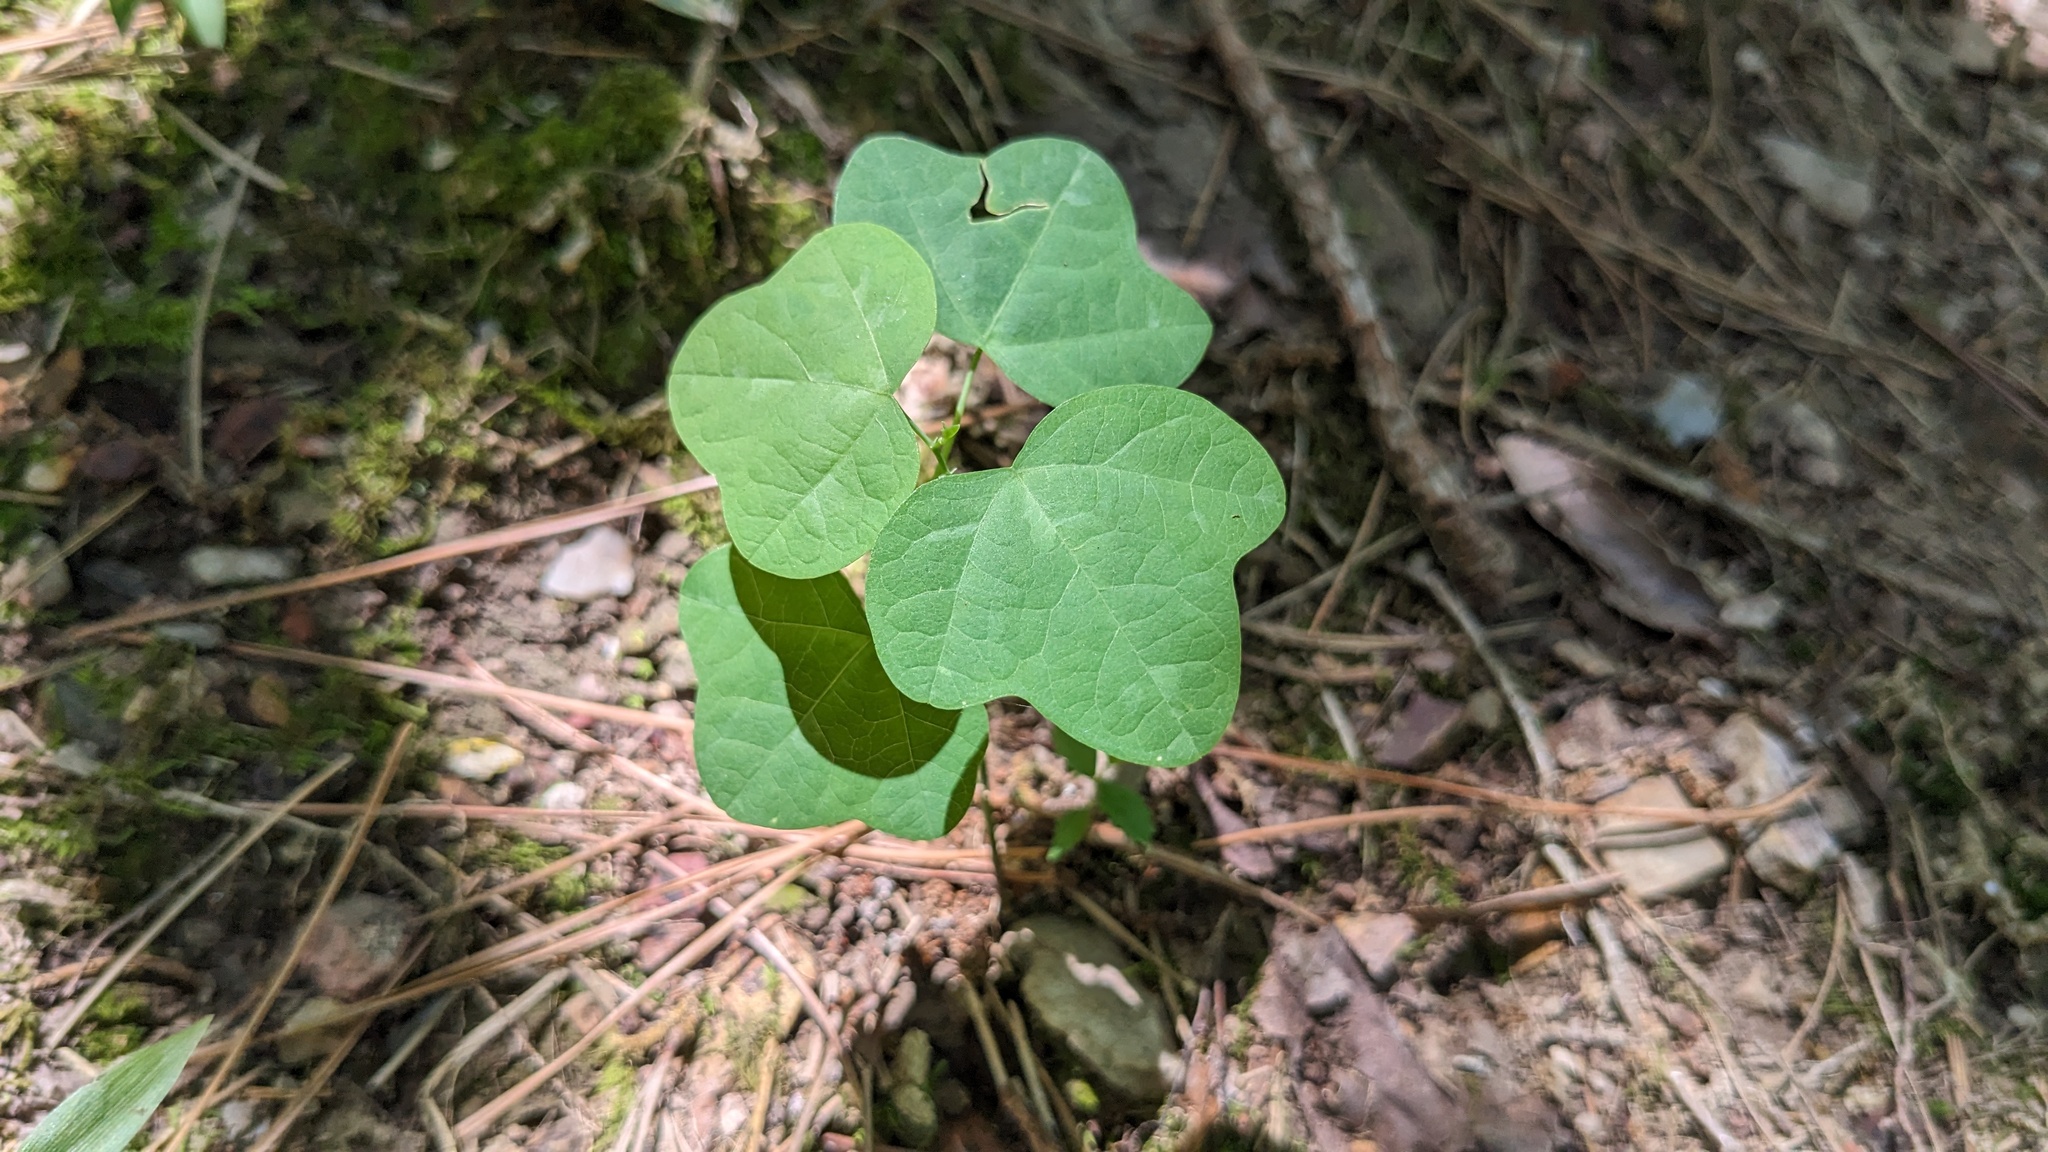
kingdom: Plantae
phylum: Tracheophyta
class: Magnoliopsida
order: Malpighiales
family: Passifloraceae
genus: Passiflora
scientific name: Passiflora lutea
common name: Yellow passionflower
